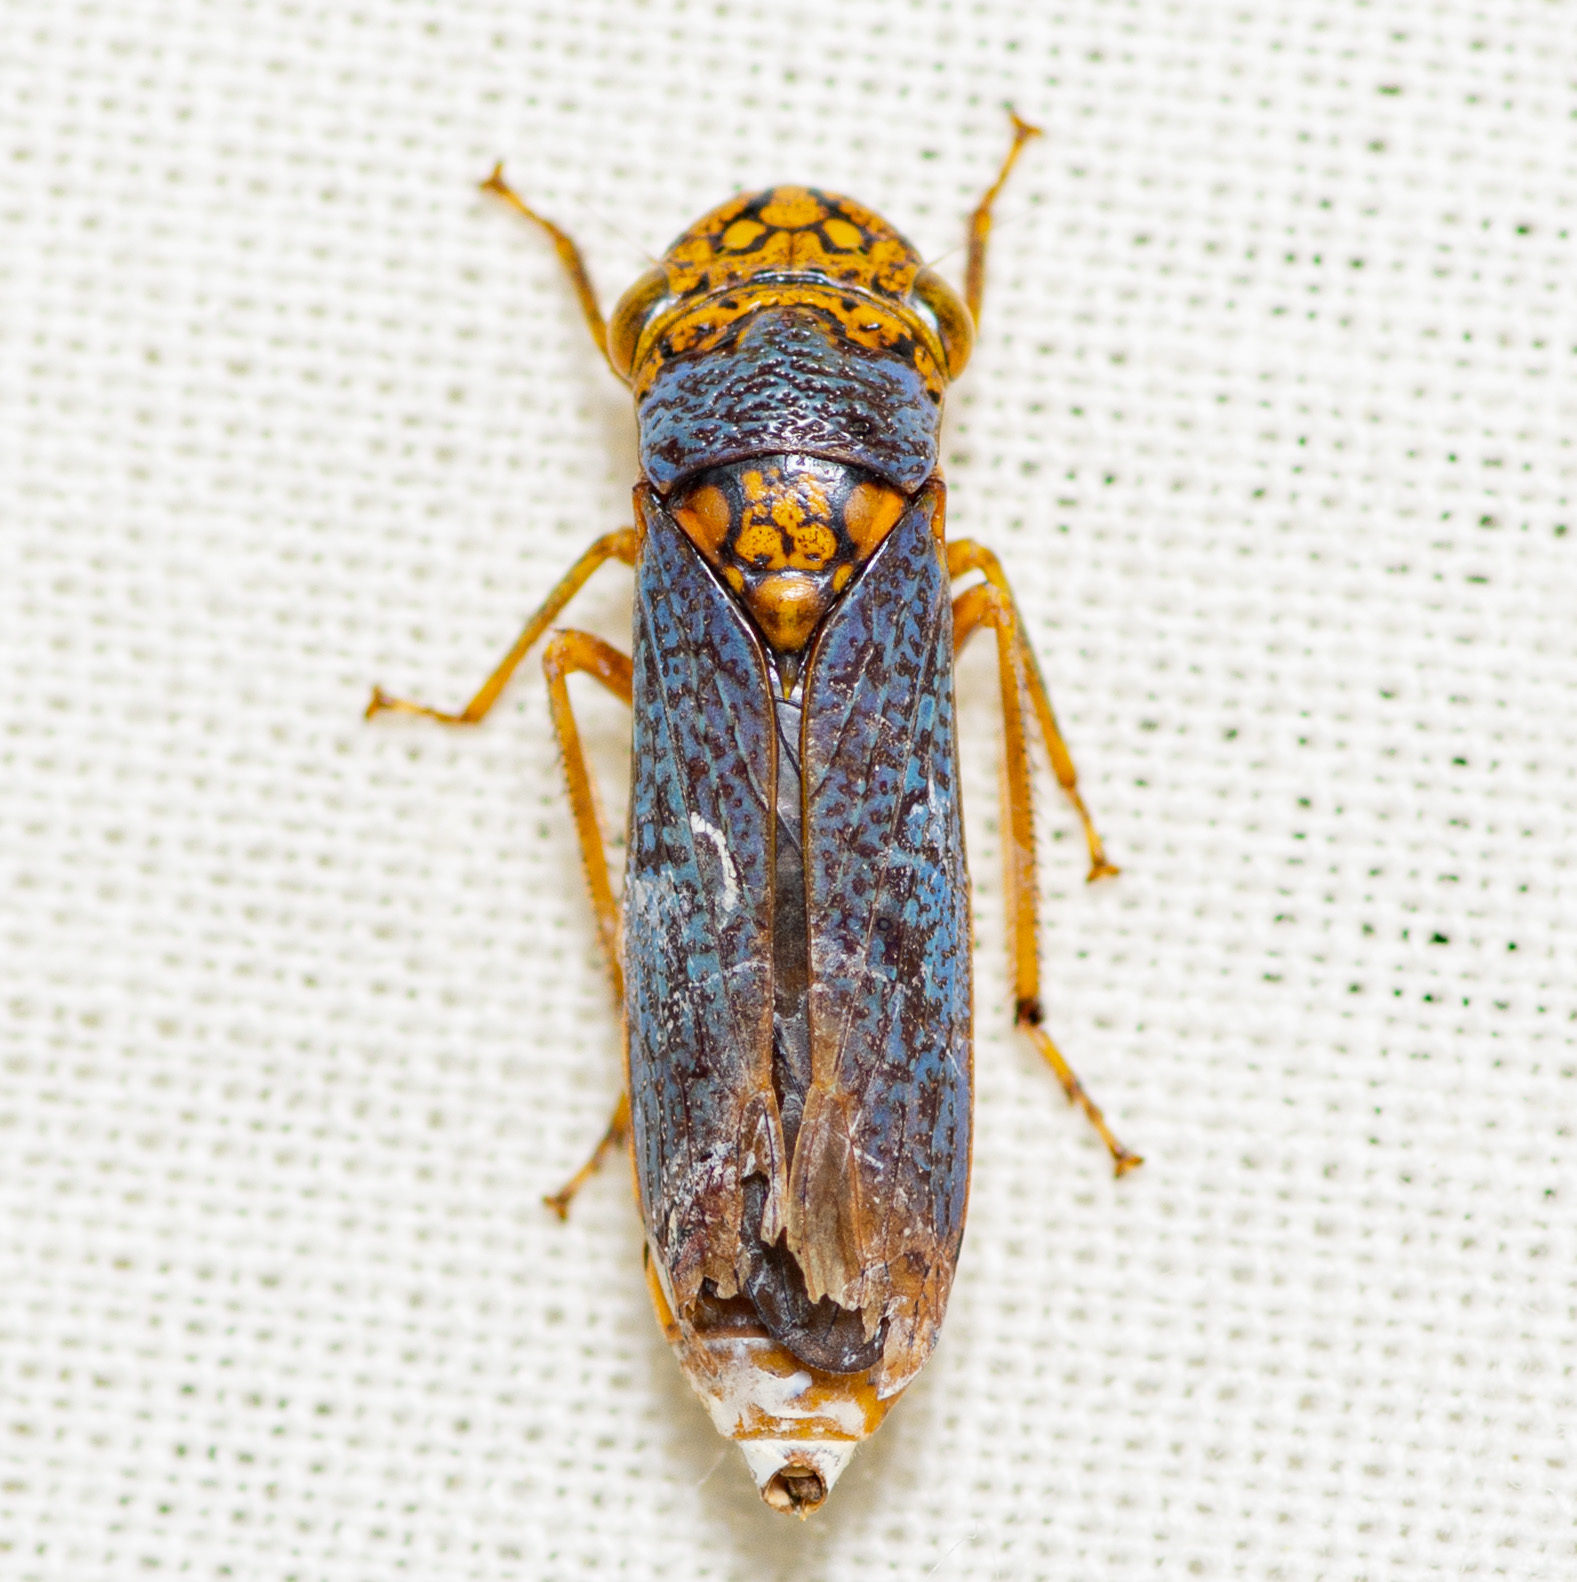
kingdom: Animalia
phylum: Arthropoda
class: Insecta
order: Hemiptera
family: Cicadellidae
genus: Oncometopia
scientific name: Oncometopia orbona
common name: Broad-headed sharpshooter
